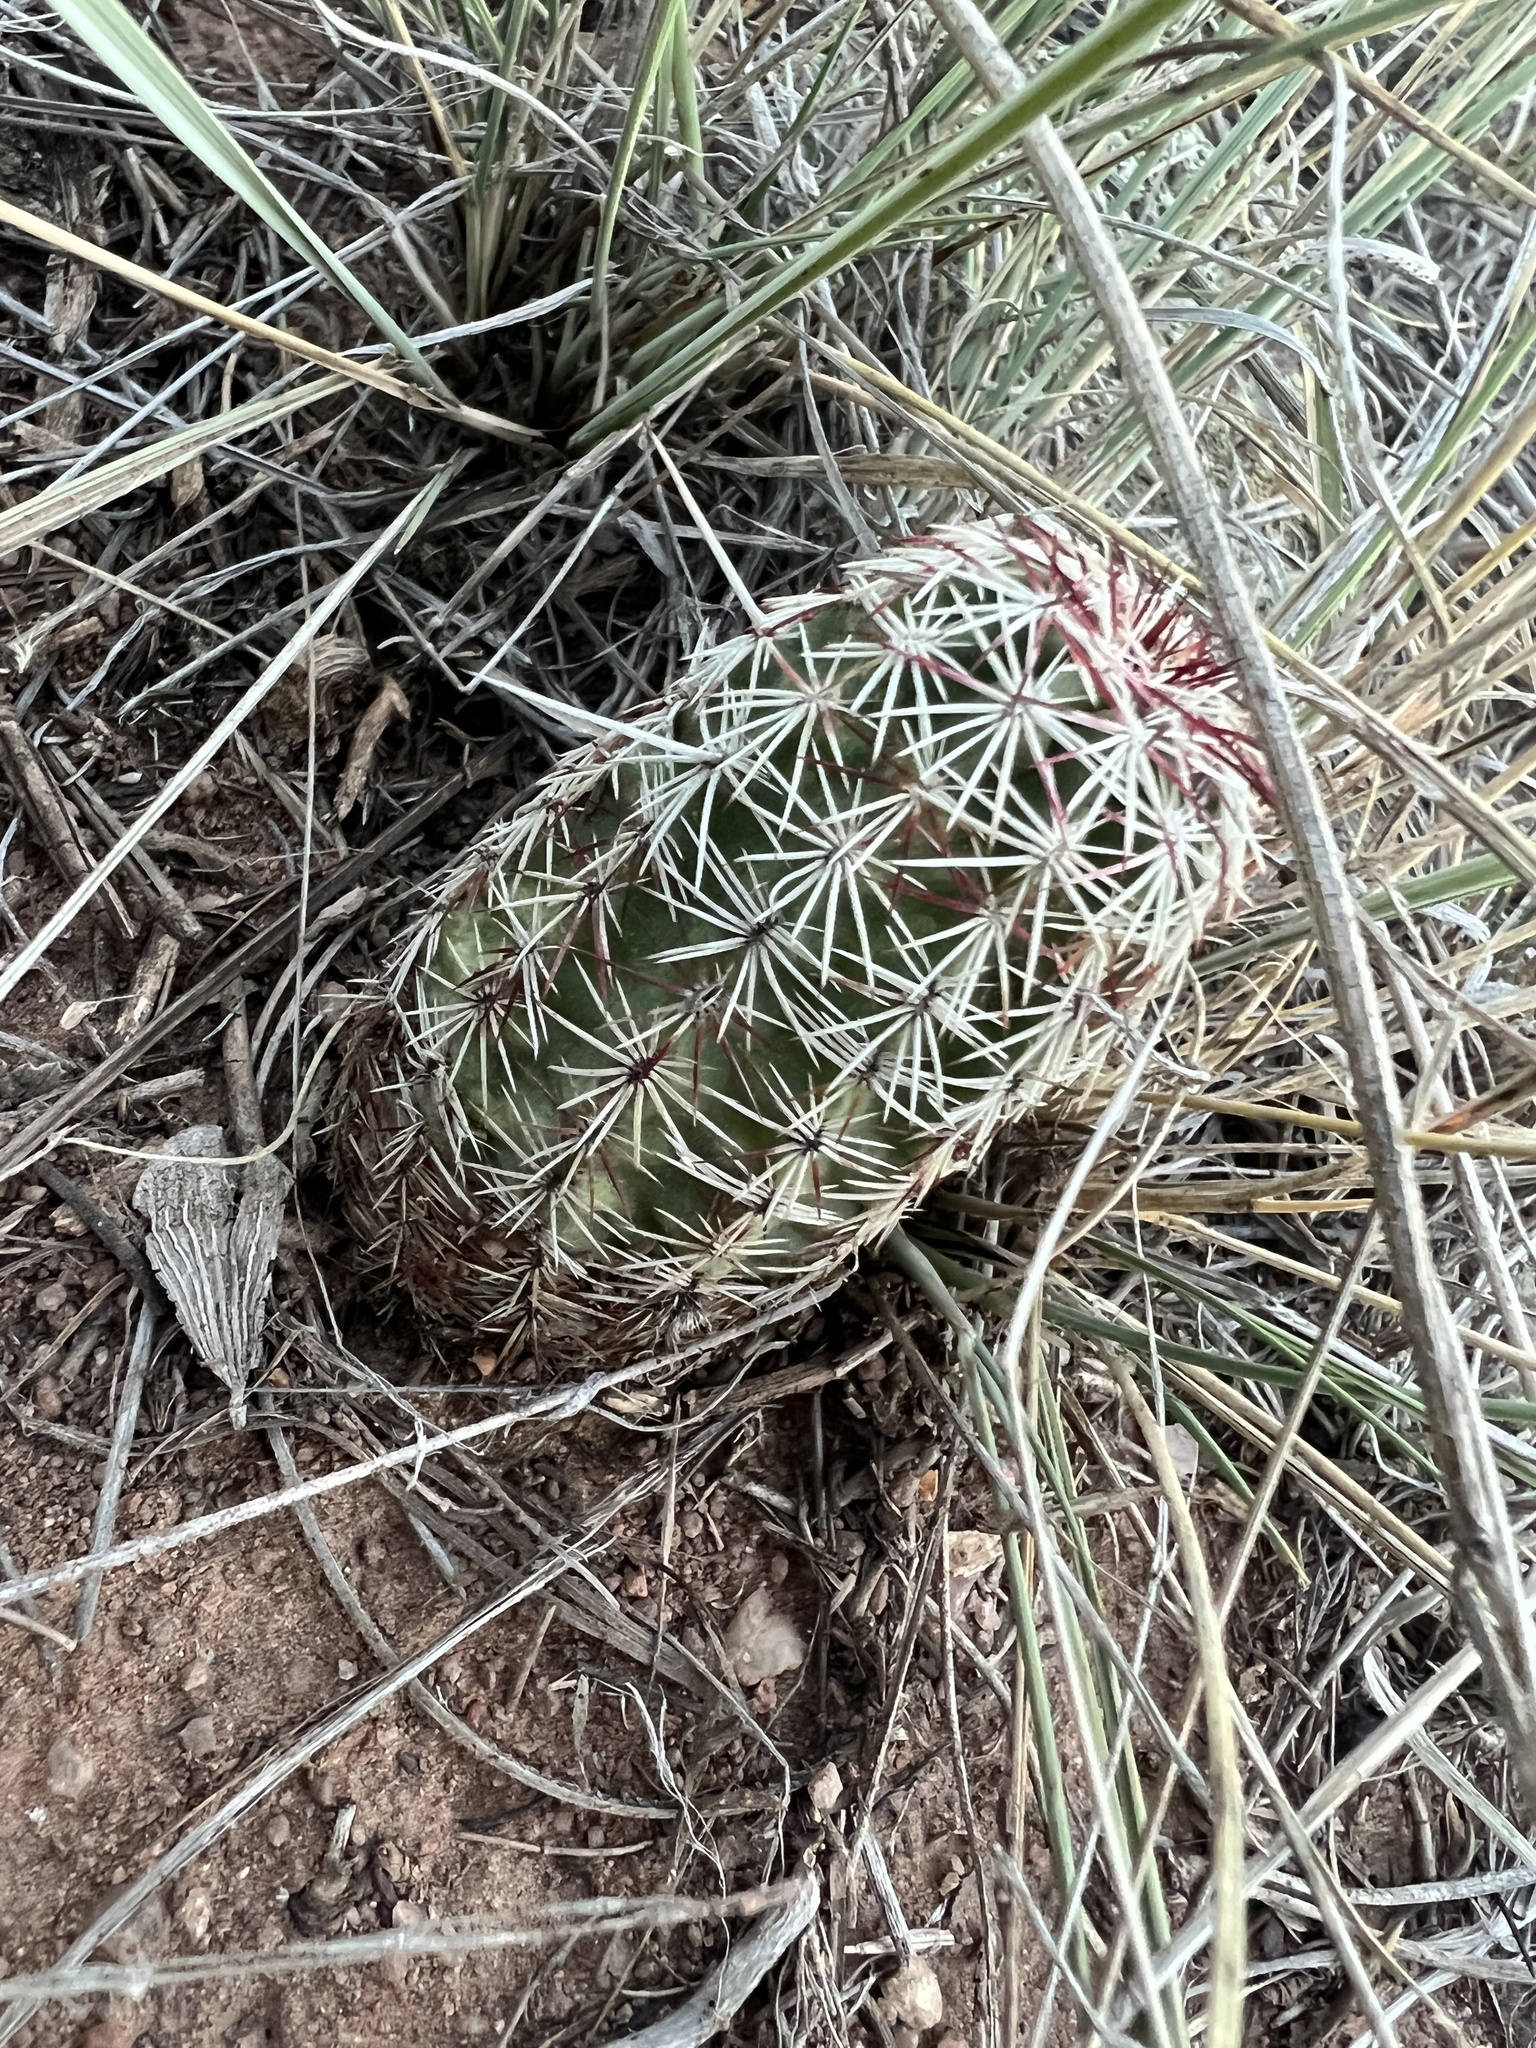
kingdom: Plantae
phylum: Tracheophyta
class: Magnoliopsida
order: Caryophyllales
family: Cactaceae
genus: Echinocereus
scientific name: Echinocereus viridiflorus
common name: Nylon hedgehog cactus
